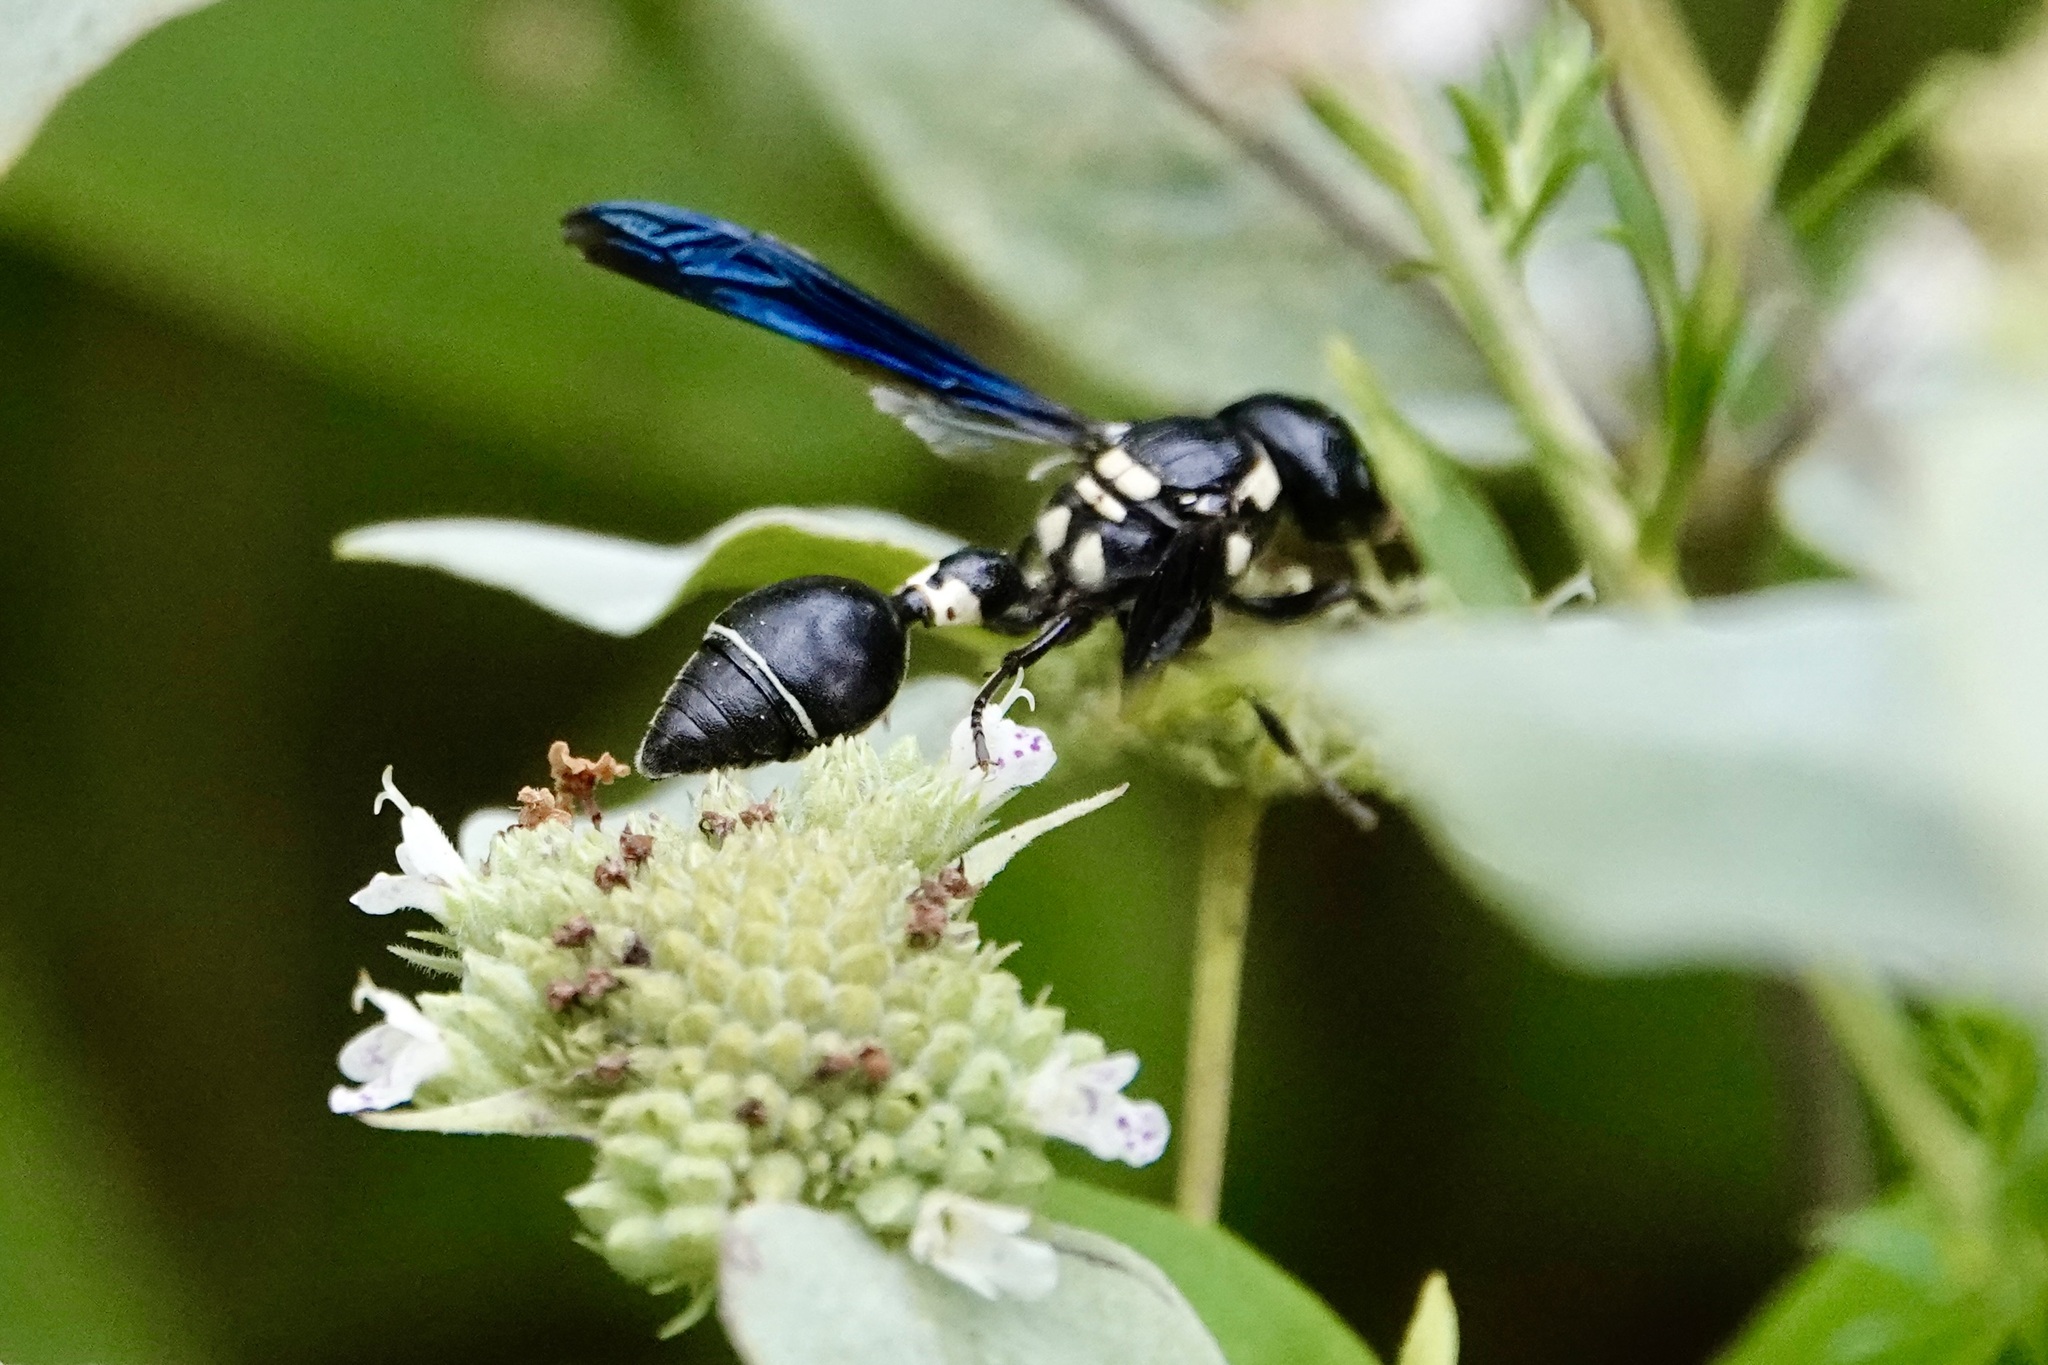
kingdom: Animalia
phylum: Arthropoda
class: Insecta
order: Hymenoptera
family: Eumenidae
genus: Zethus
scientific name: Zethus spinipes
